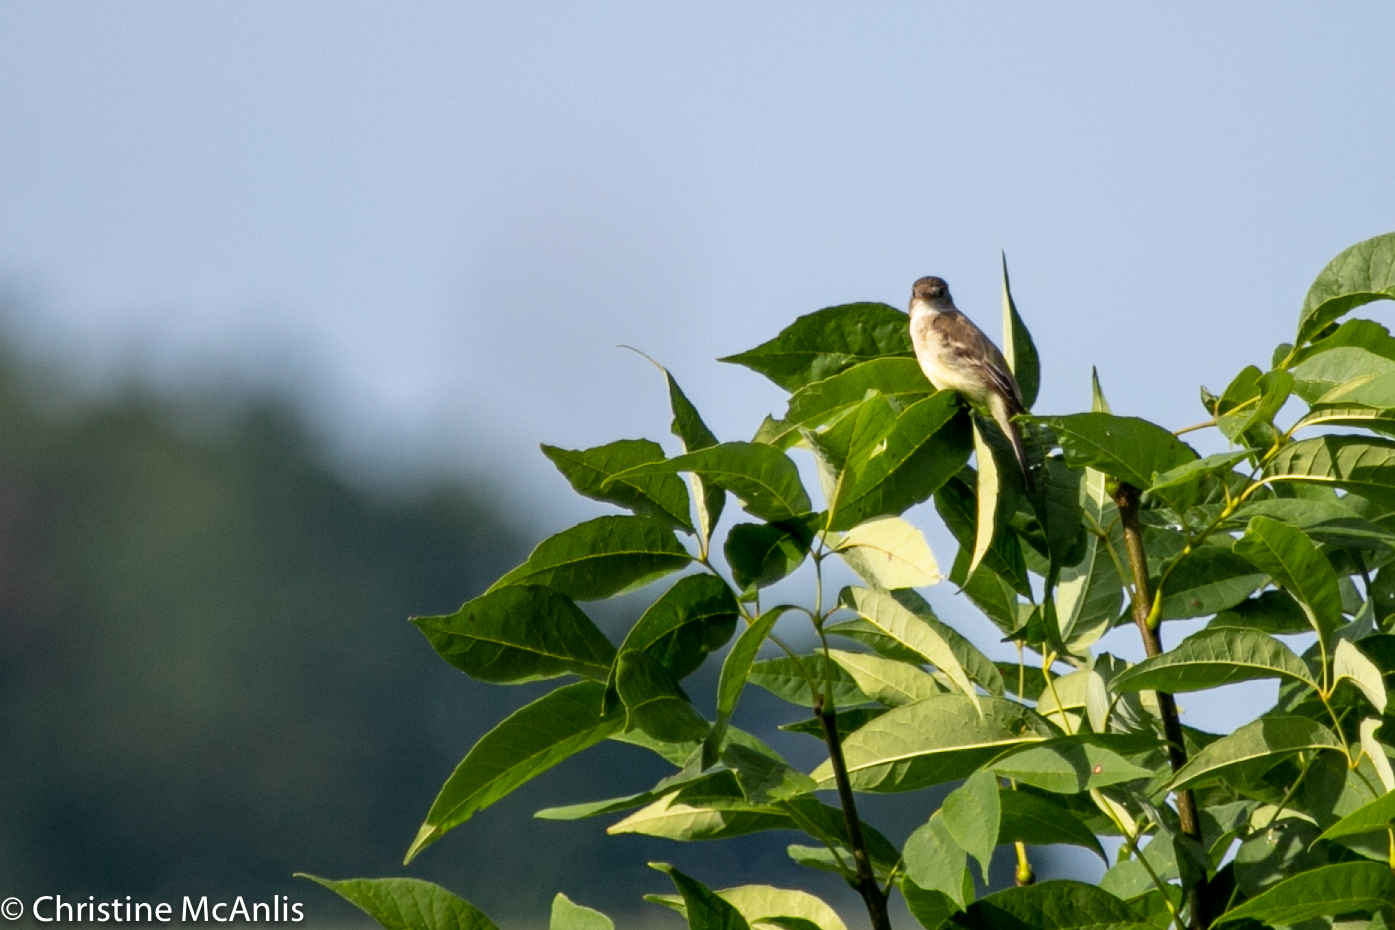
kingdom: Animalia
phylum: Chordata
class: Aves
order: Passeriformes
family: Tyrannidae
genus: Empidonax
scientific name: Empidonax traillii
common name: Willow flycatcher
